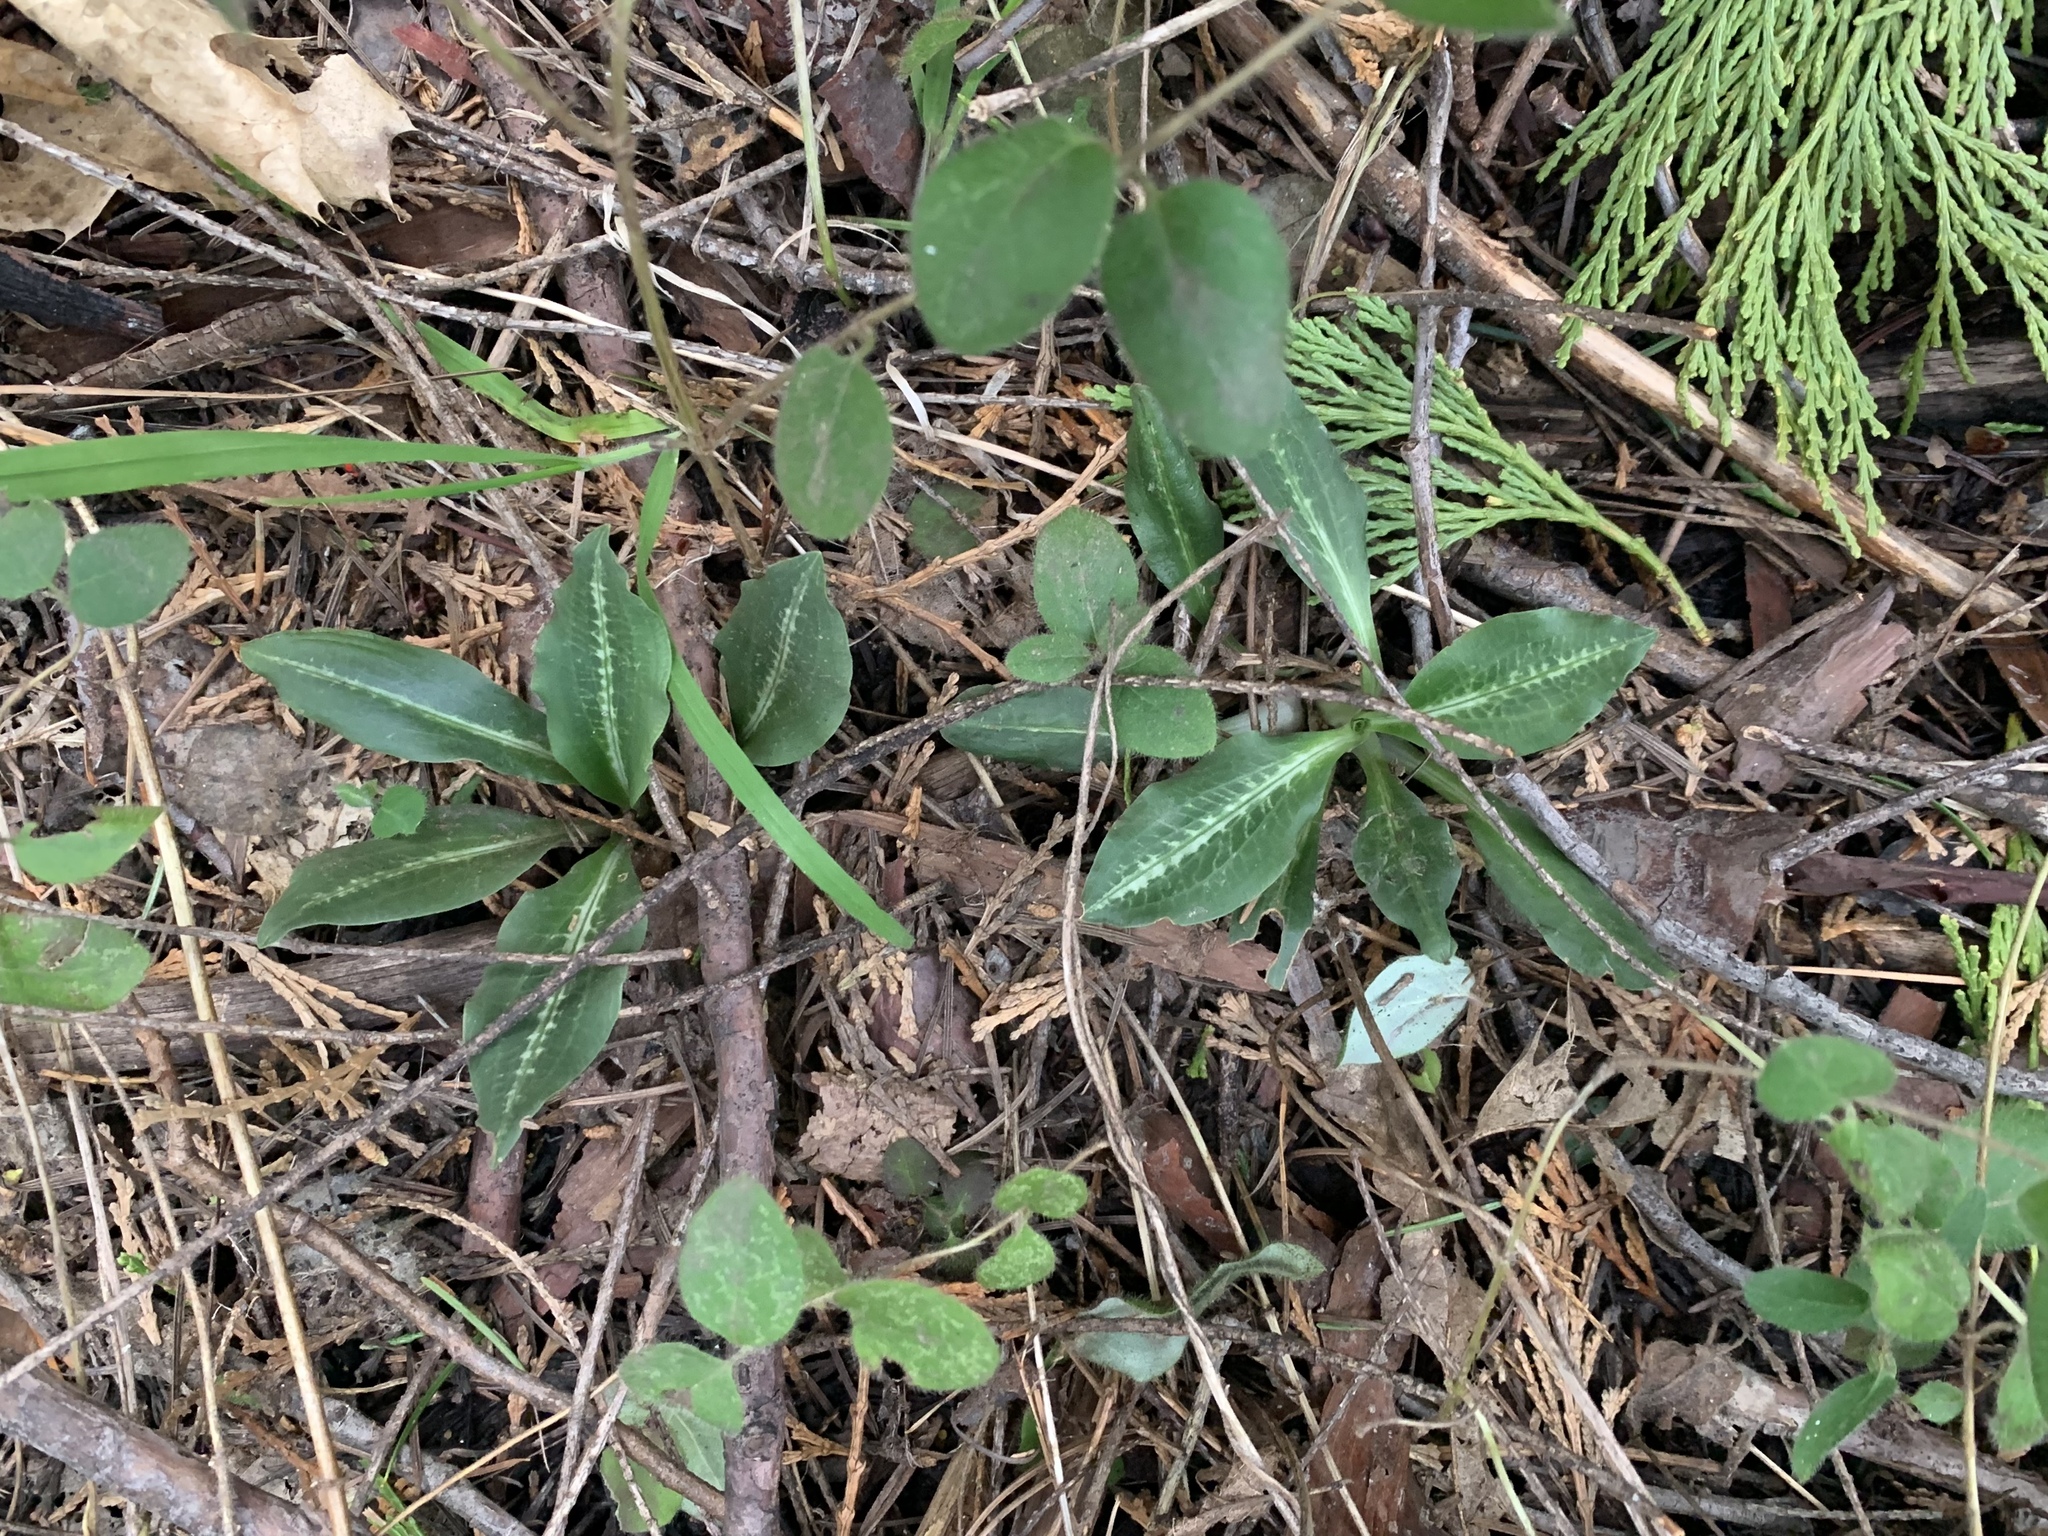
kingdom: Plantae
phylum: Tracheophyta
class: Liliopsida
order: Asparagales
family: Orchidaceae
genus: Goodyera
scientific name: Goodyera oblongifolia
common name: Giant rattlesnake-plantain
